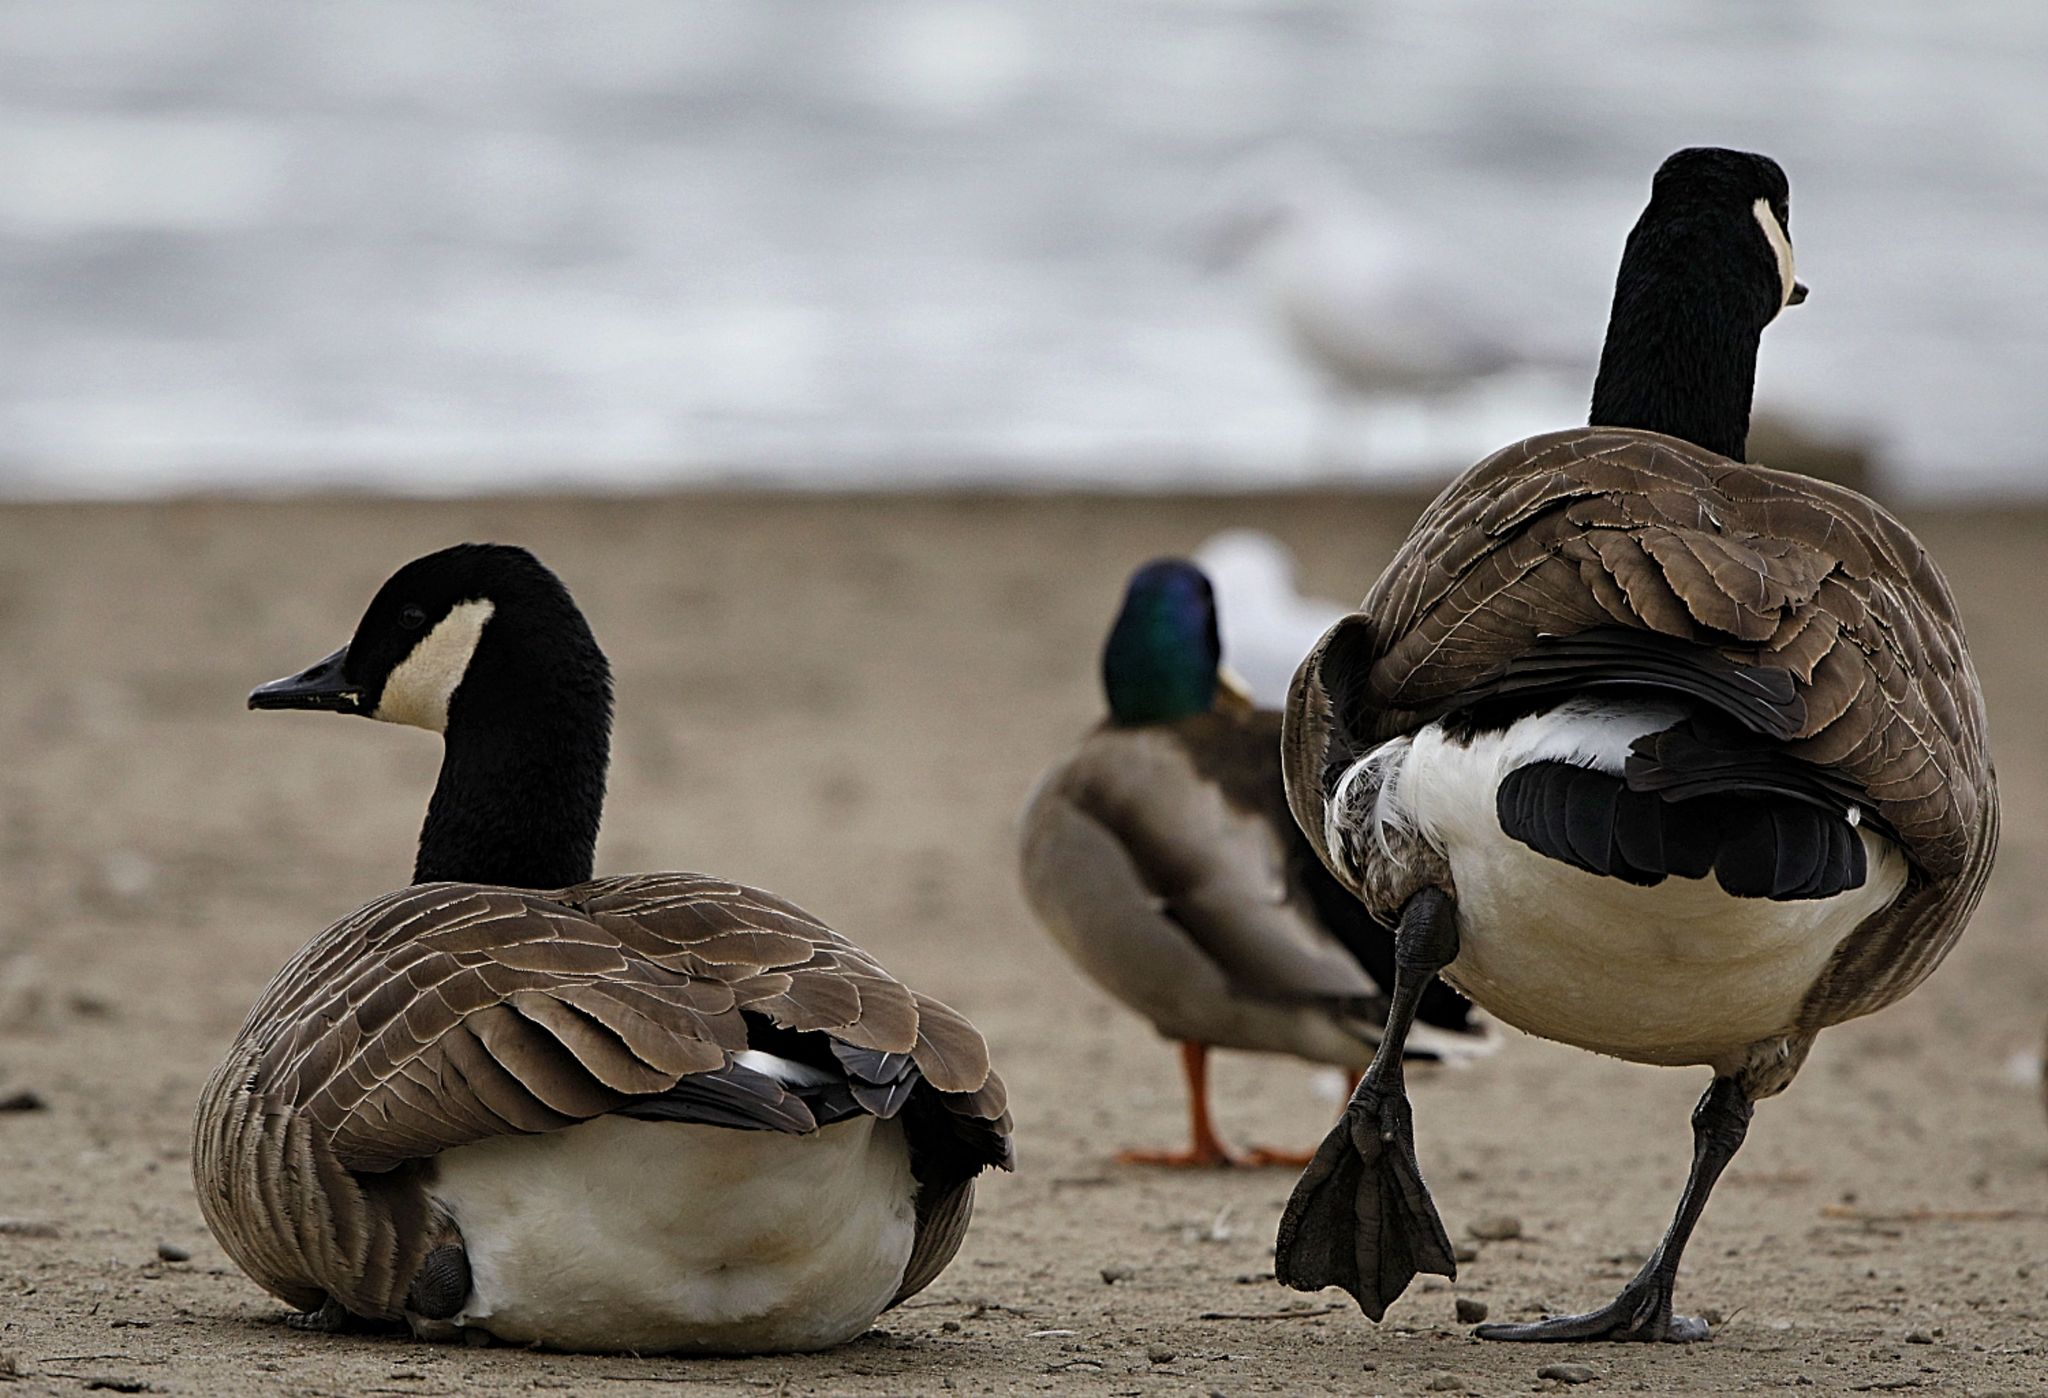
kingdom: Animalia
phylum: Chordata
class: Aves
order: Anseriformes
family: Anatidae
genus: Branta
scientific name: Branta canadensis
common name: Canada goose
